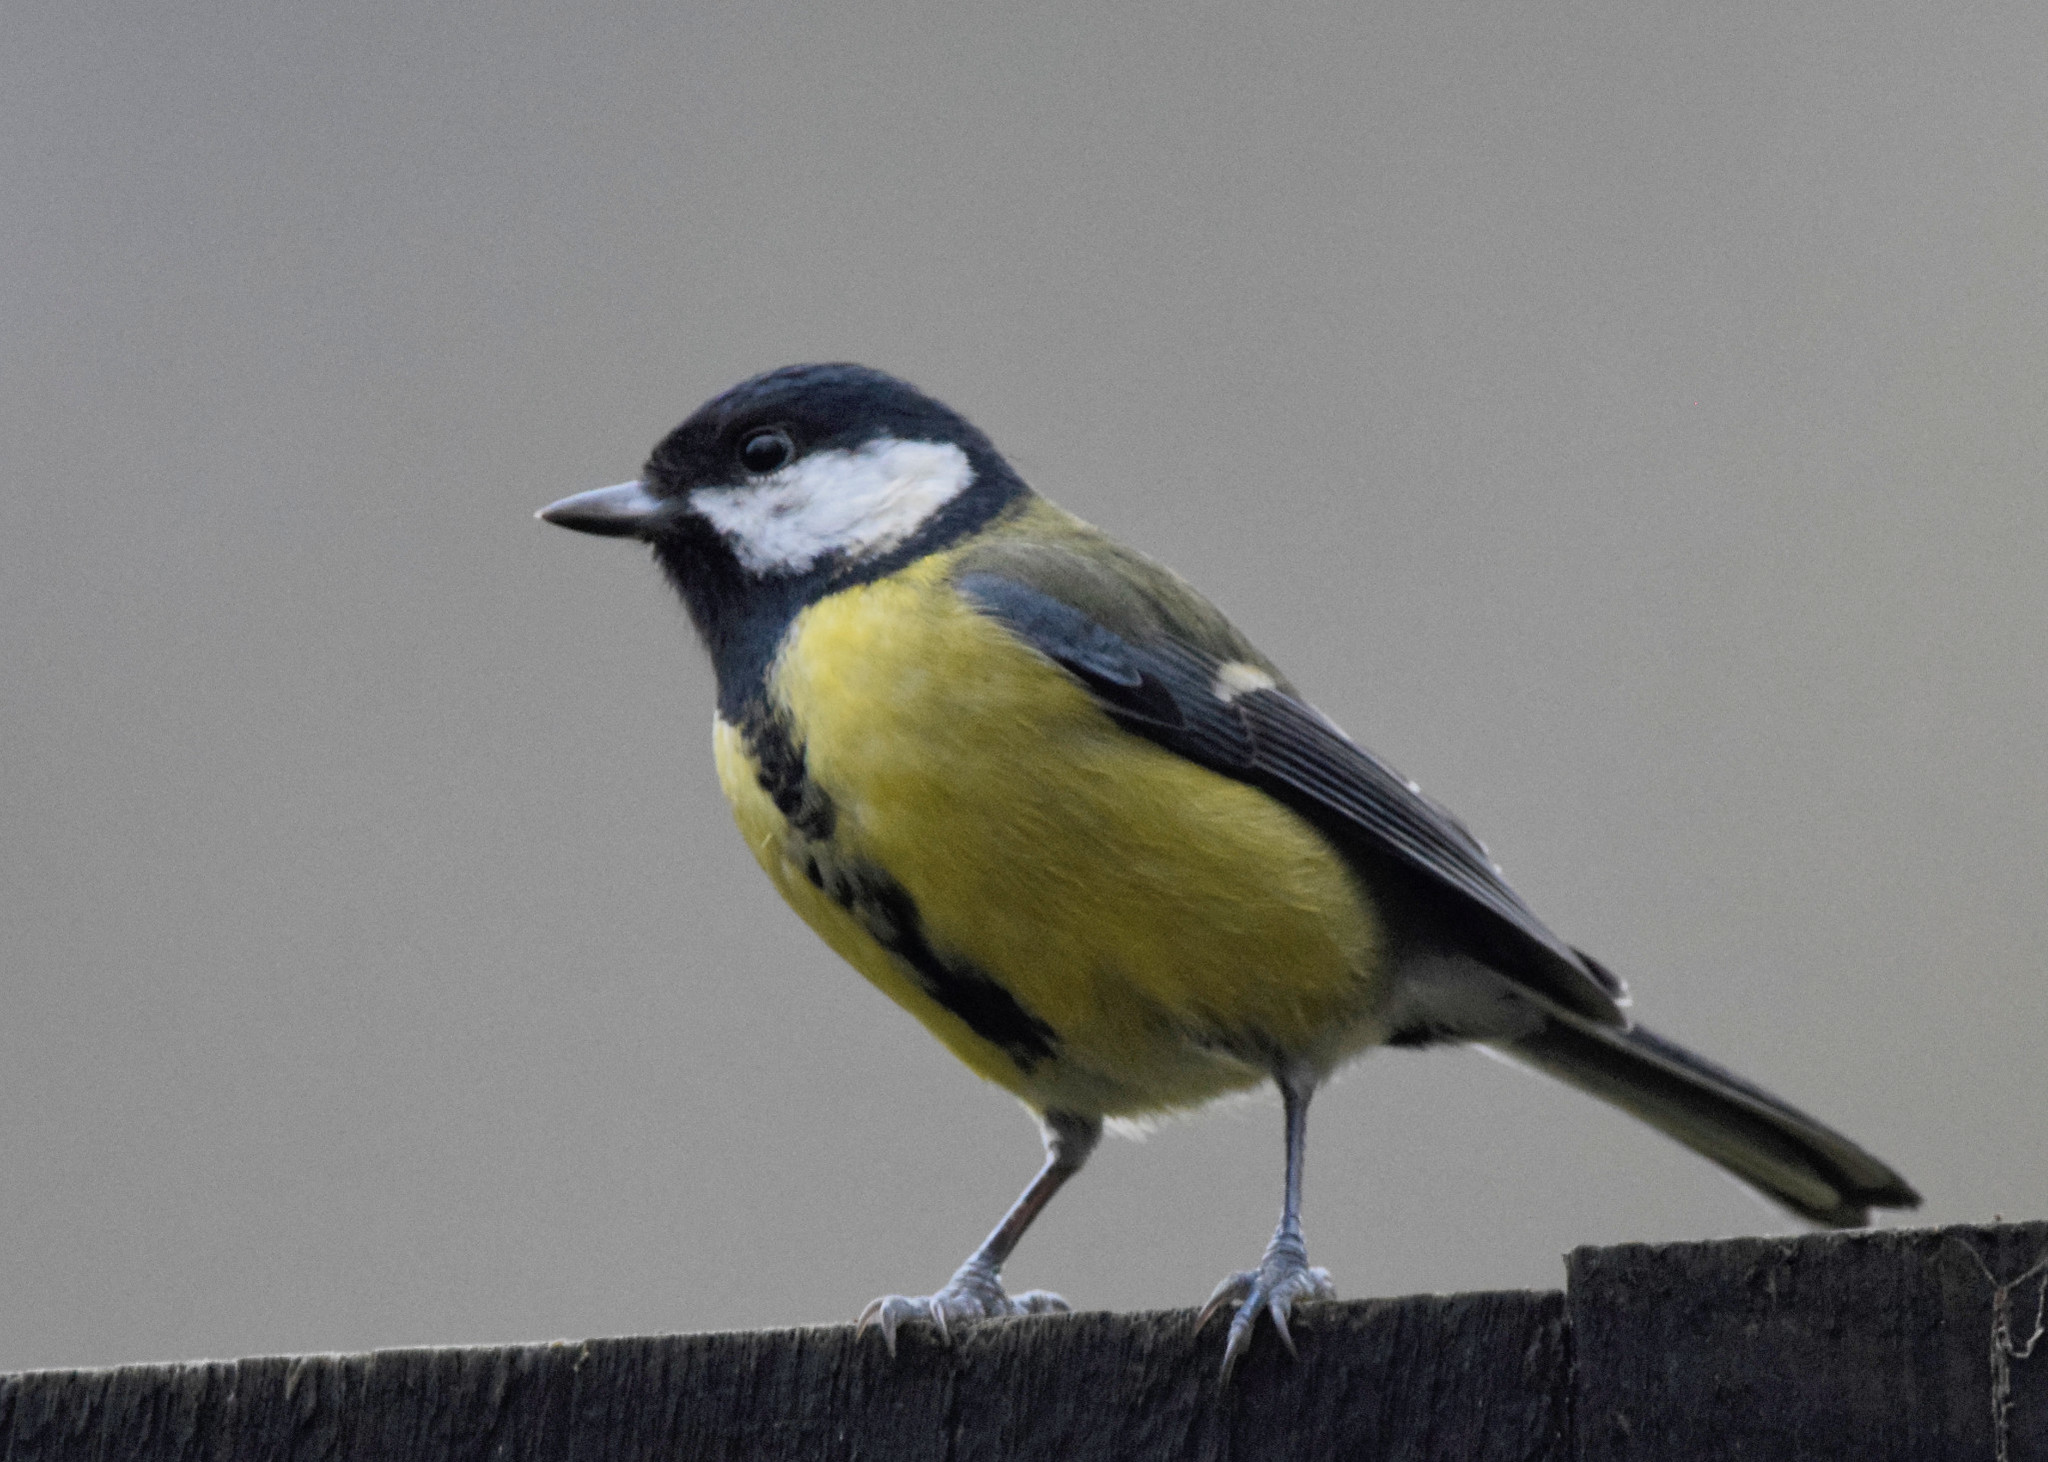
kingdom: Animalia
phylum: Chordata
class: Aves
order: Passeriformes
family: Paridae
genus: Parus
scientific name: Parus major
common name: Great tit
